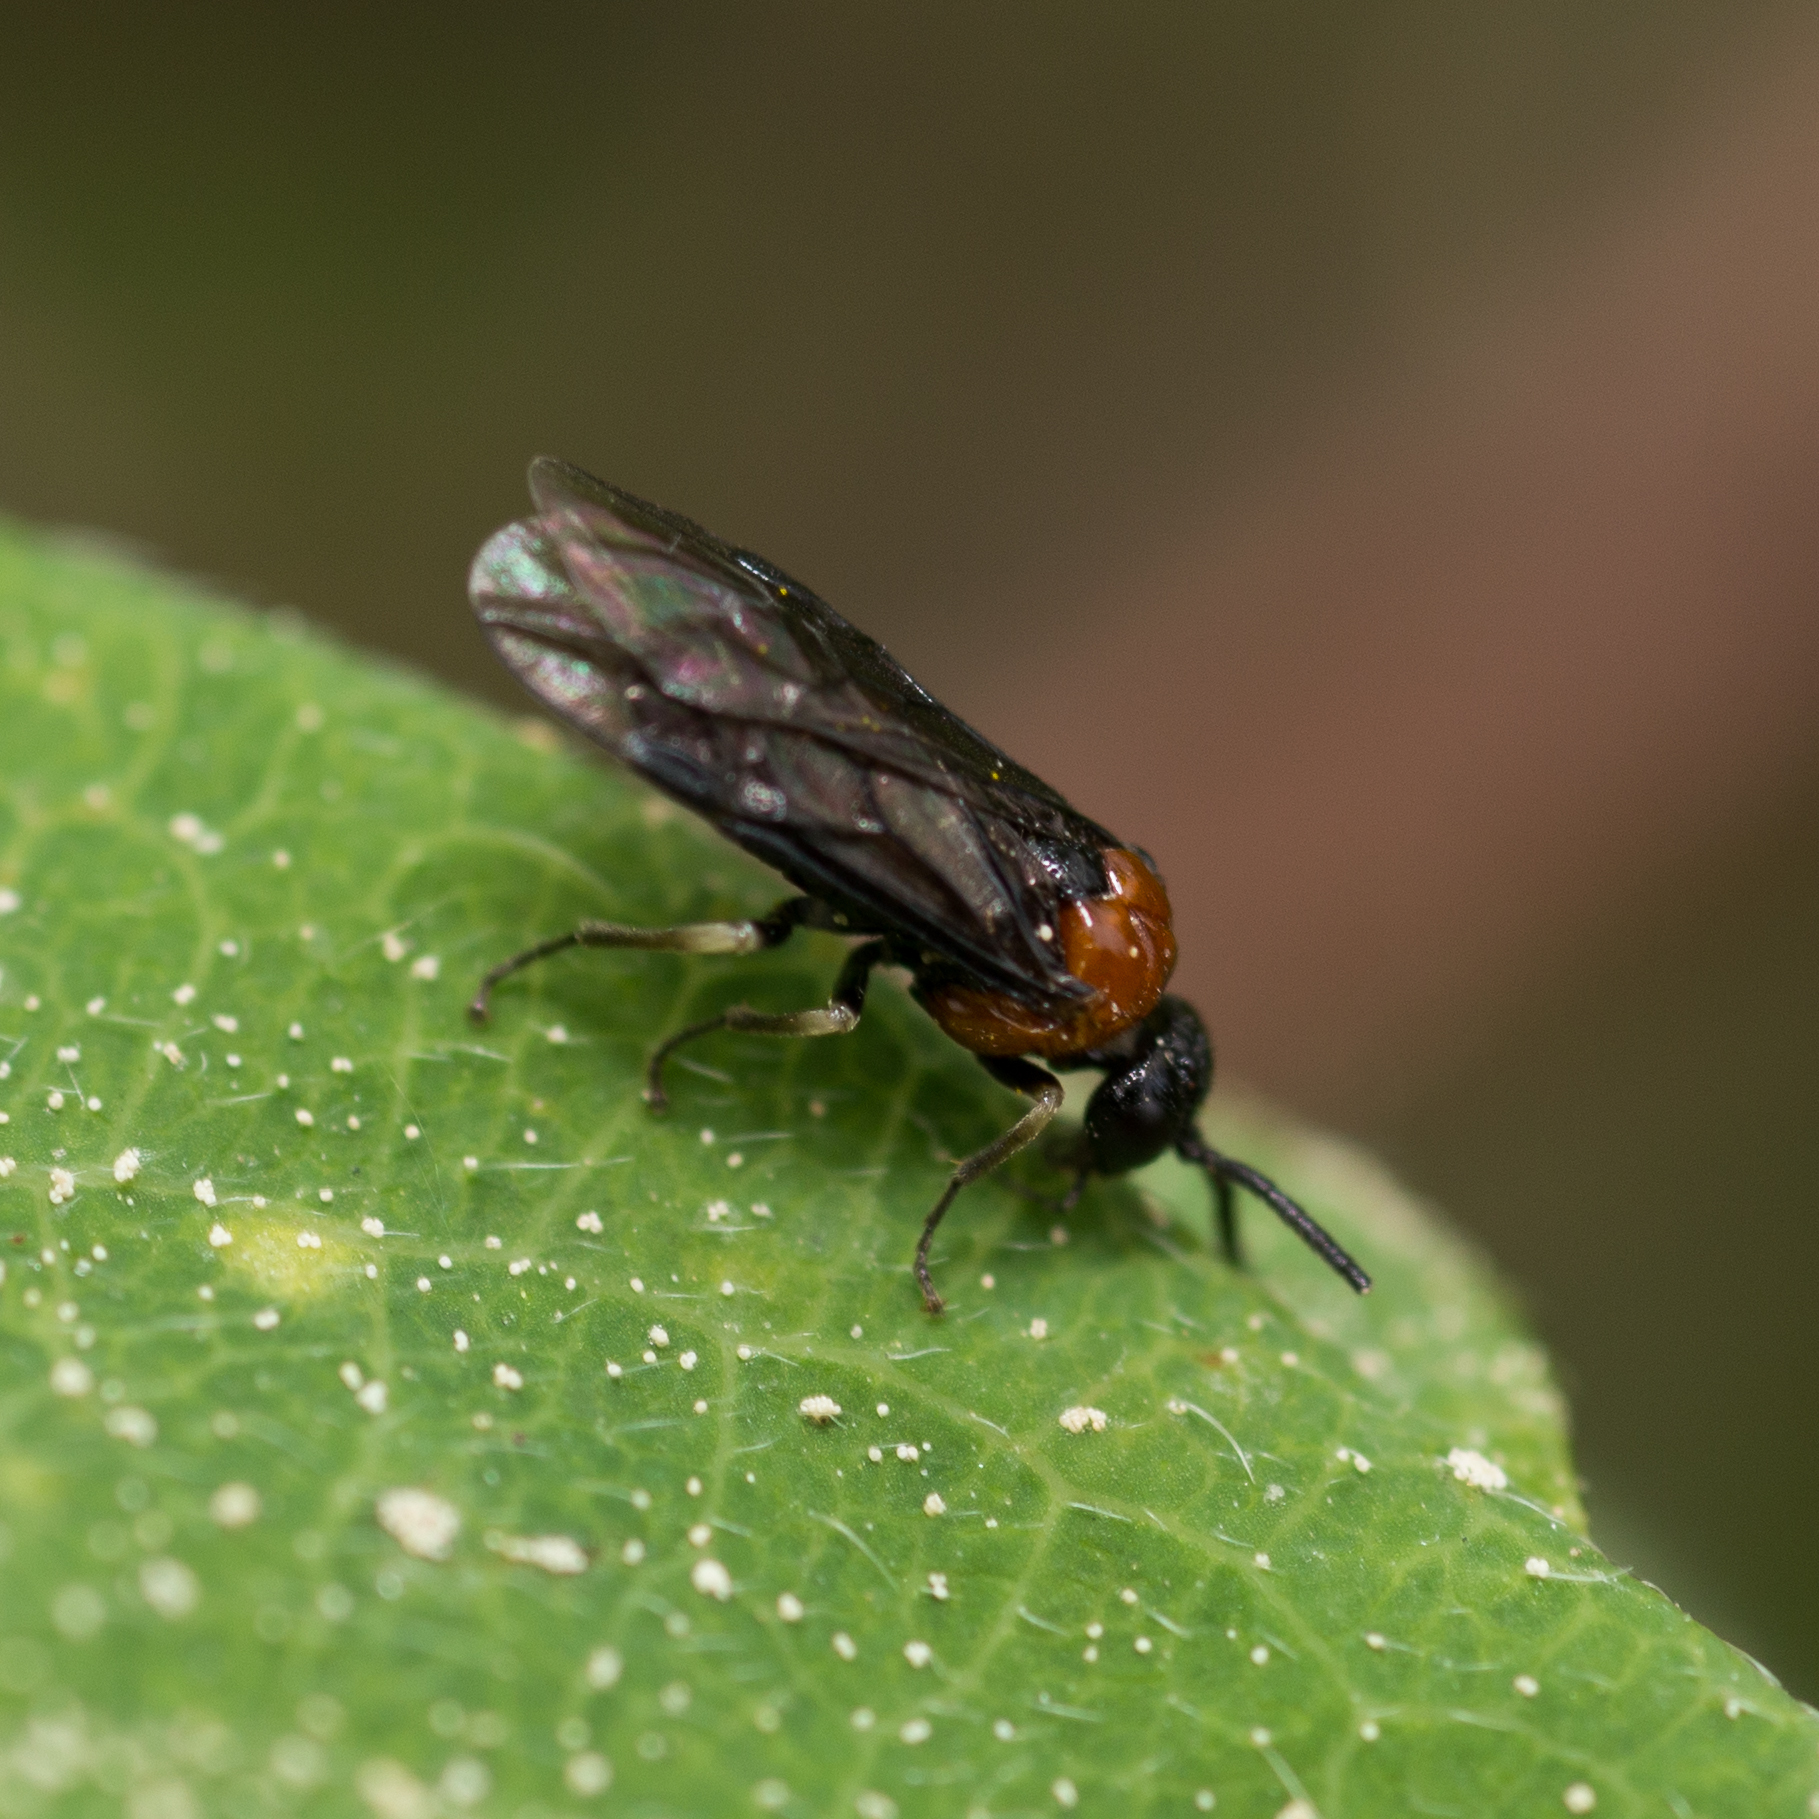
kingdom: Animalia
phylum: Arthropoda
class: Insecta
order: Hymenoptera
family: Tenthredinidae
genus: Eutomostethus
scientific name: Eutomostethus ephippium
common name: Tenthredid wasp
